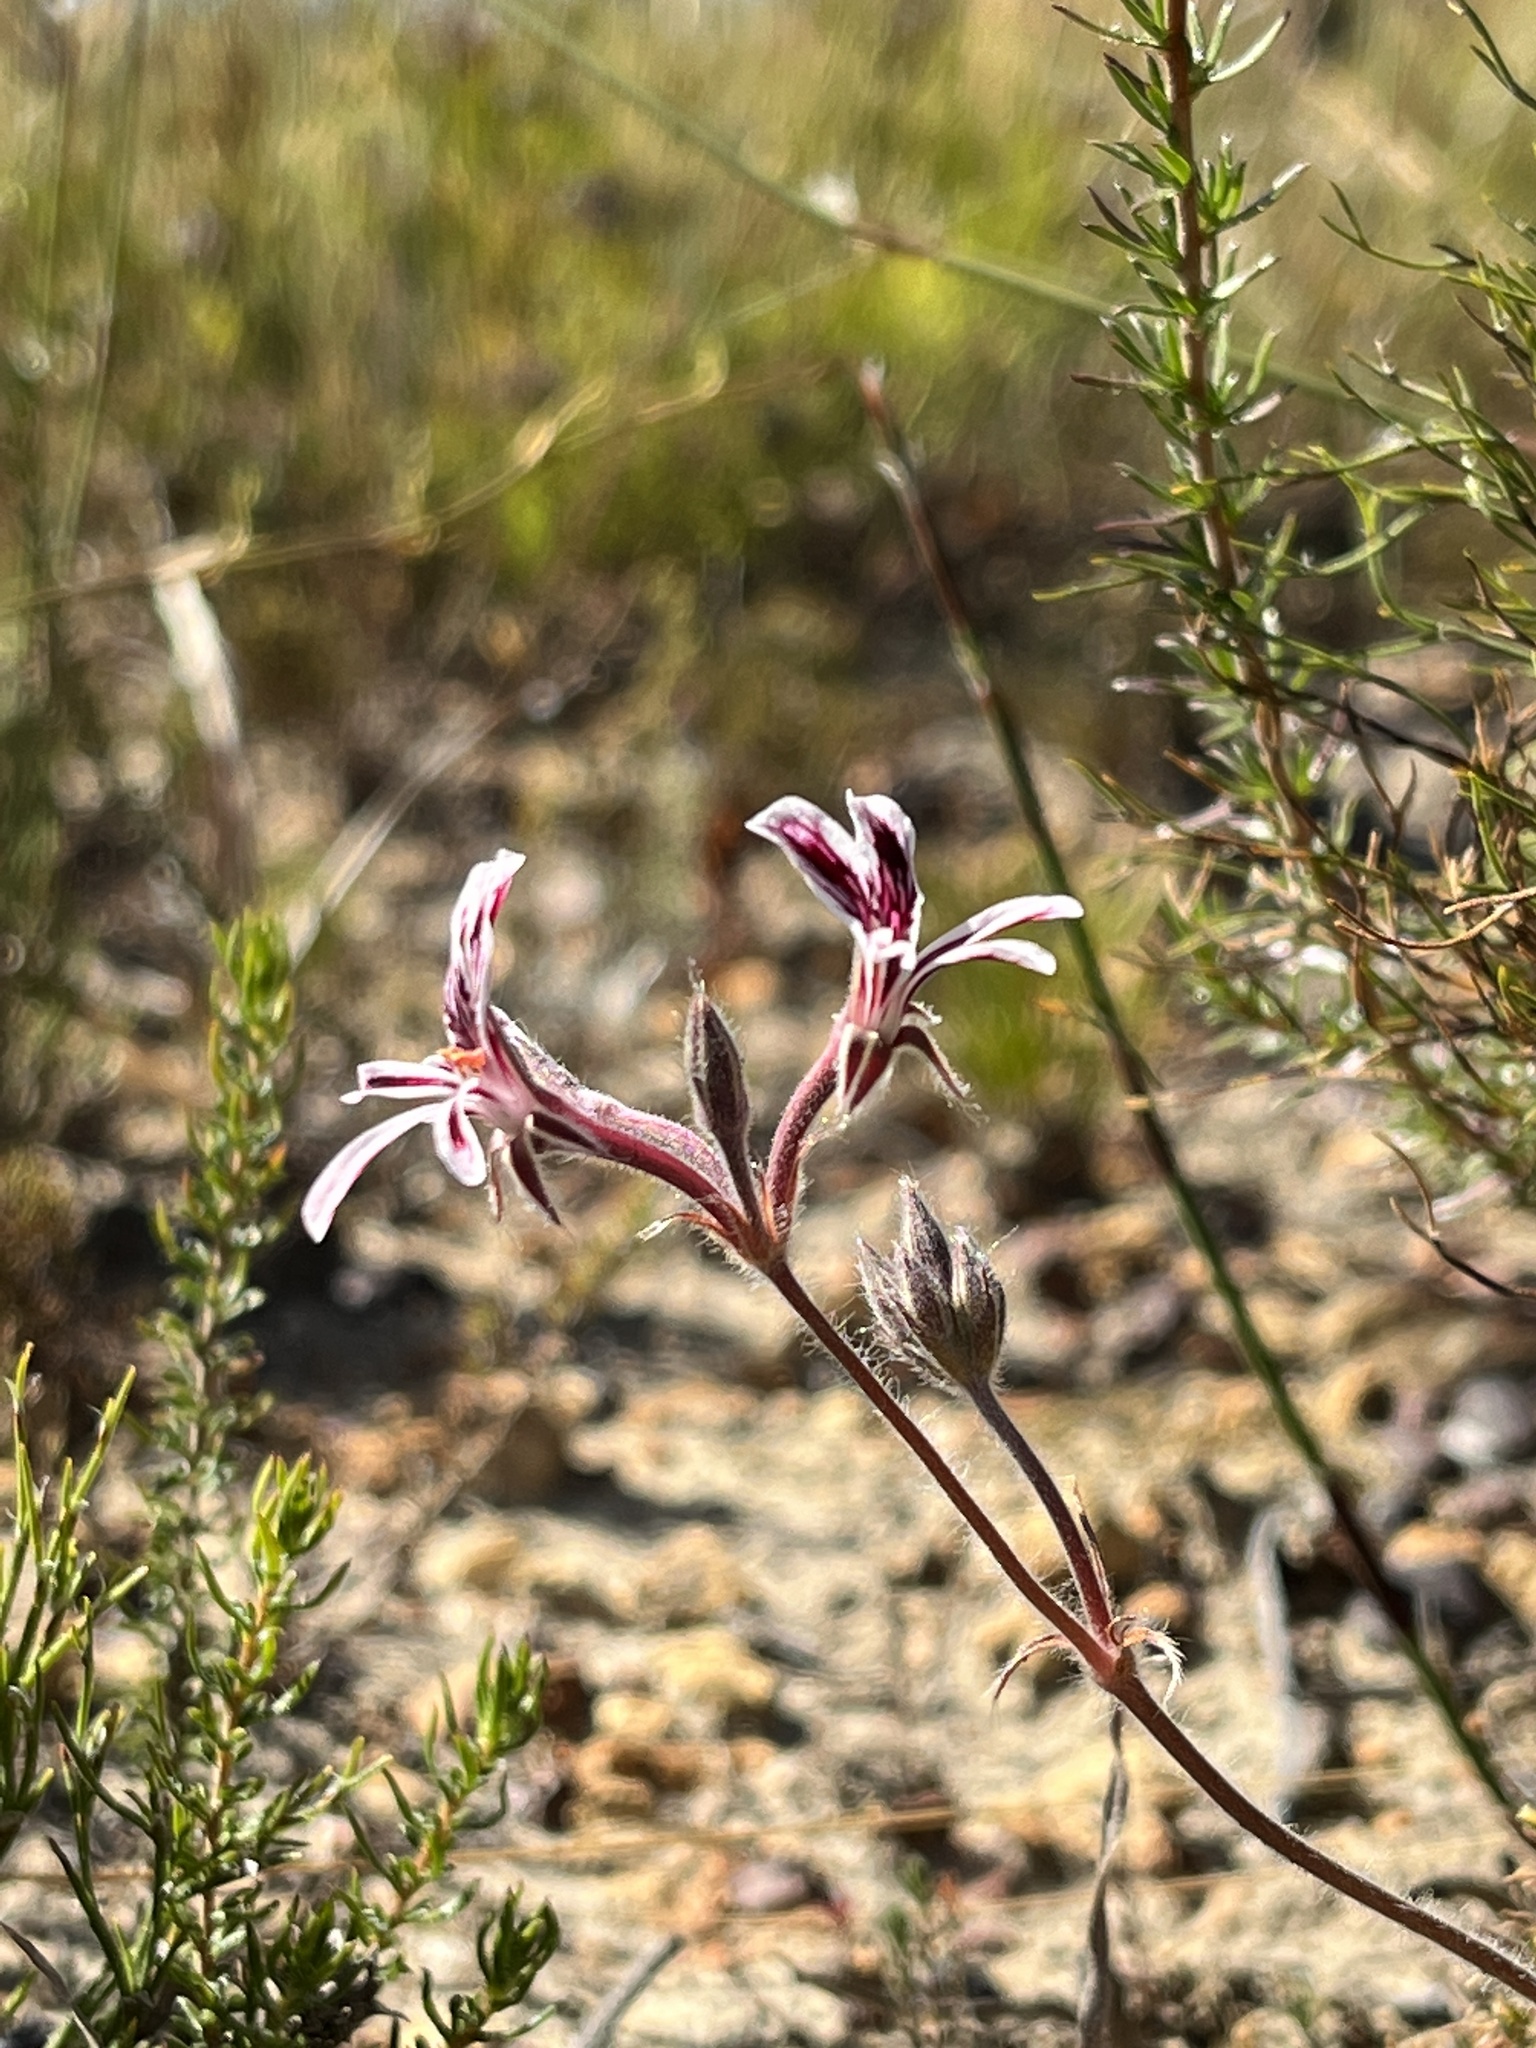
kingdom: Plantae
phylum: Tracheophyta
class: Magnoliopsida
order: Geraniales
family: Geraniaceae
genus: Pelargonium
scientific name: Pelargonium pilosellifolium
